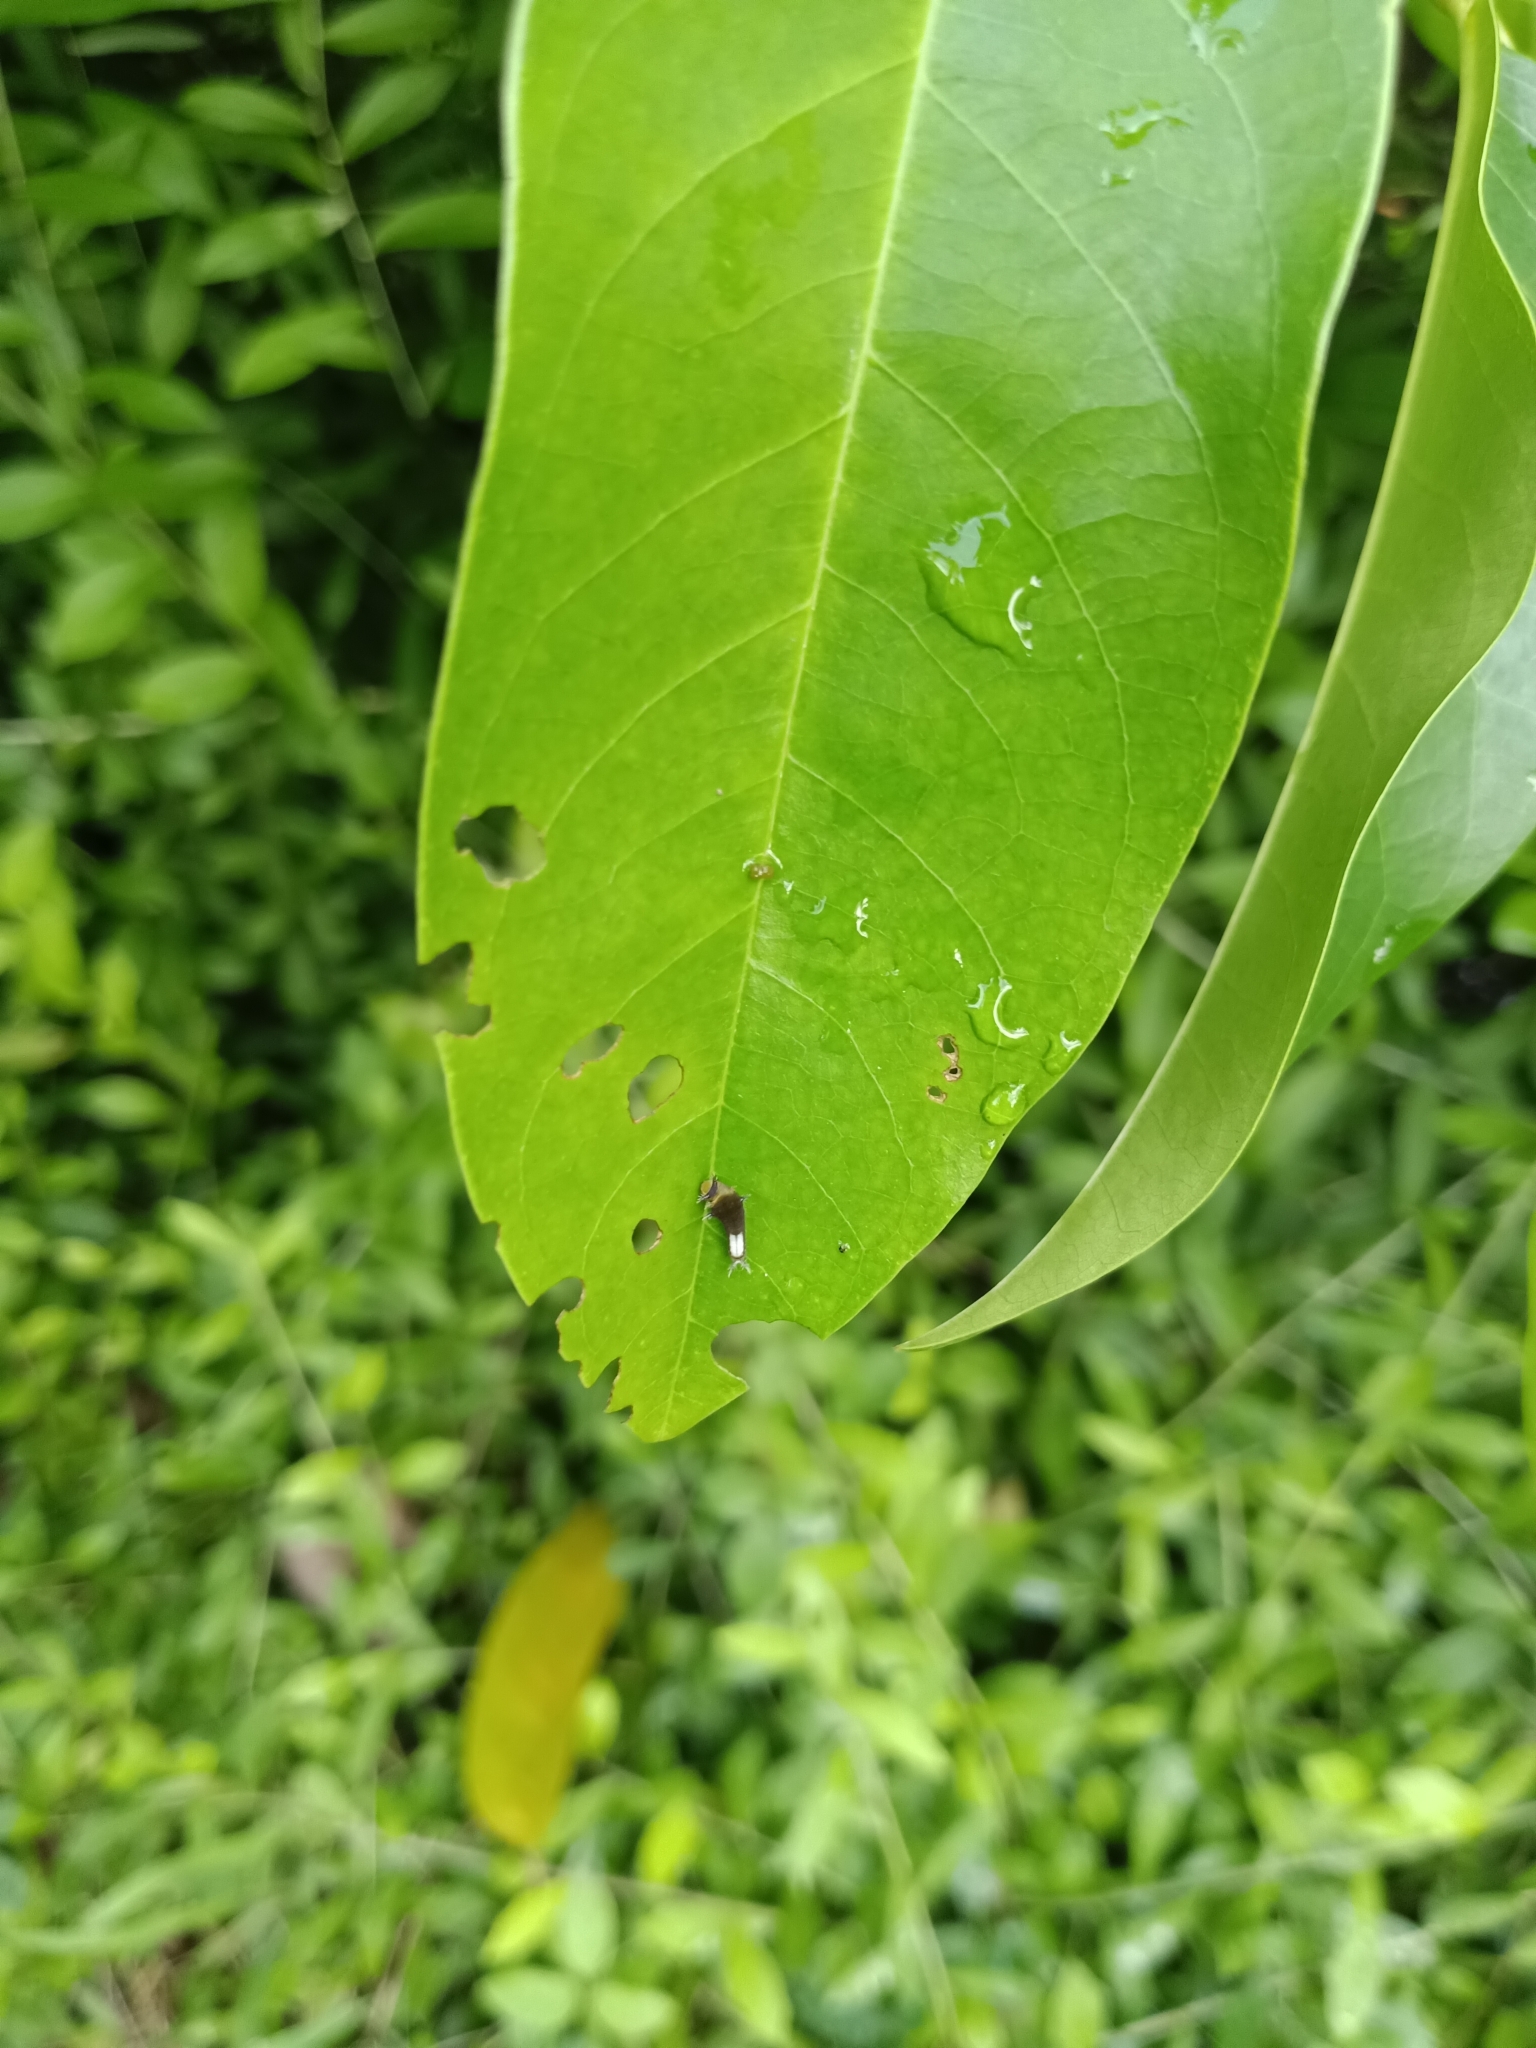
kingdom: Animalia
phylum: Arthropoda
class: Insecta
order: Lepidoptera
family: Papilionidae
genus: Graphium
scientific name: Graphium agamemnon
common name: Tailed jay
